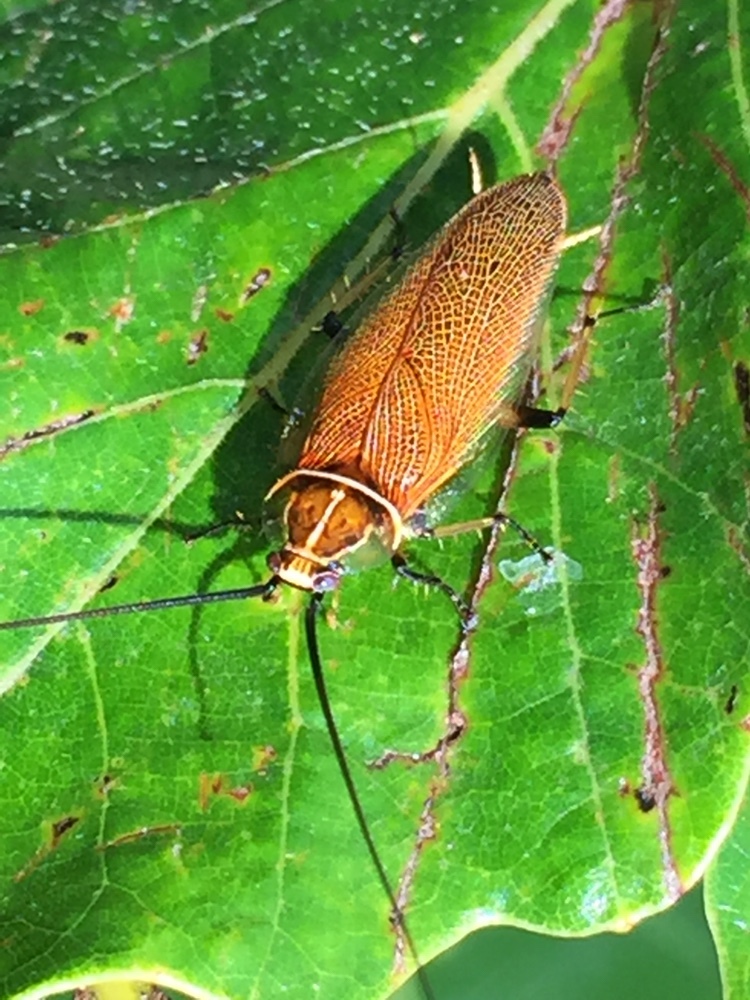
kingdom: Animalia
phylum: Arthropoda
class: Insecta
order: Blattodea
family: Ectobiidae
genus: Balta
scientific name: Balta bicolor
